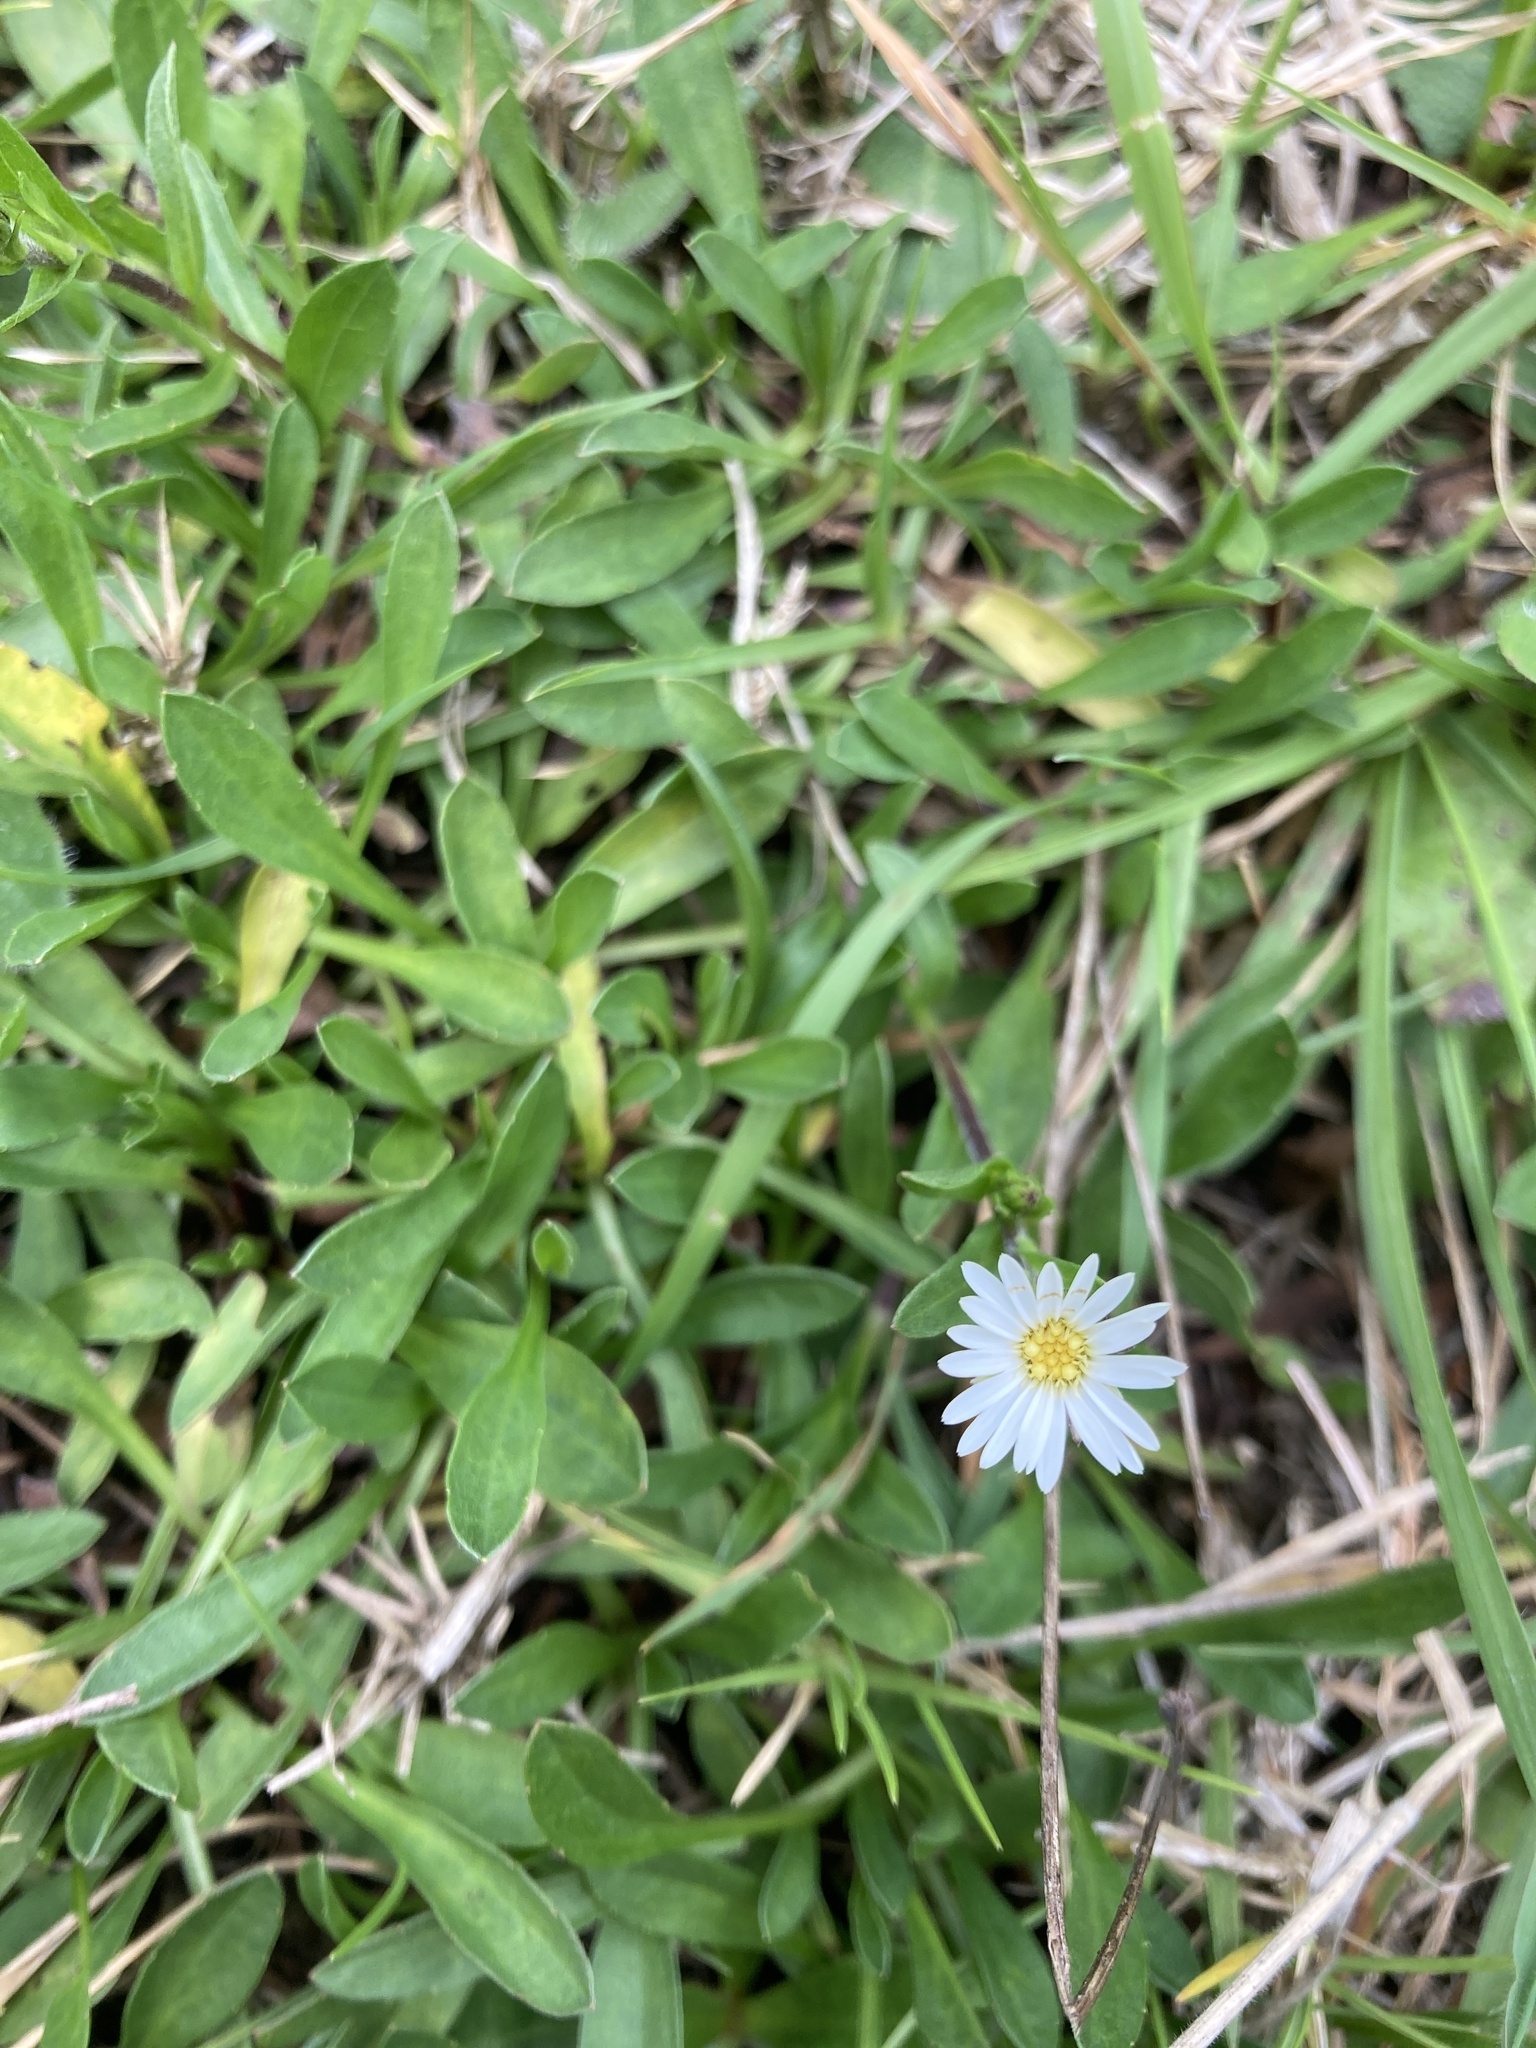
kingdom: Plantae
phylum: Tracheophyta
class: Magnoliopsida
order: Asterales
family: Asteraceae
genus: Noticastrum
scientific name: Noticastrum marginatum
